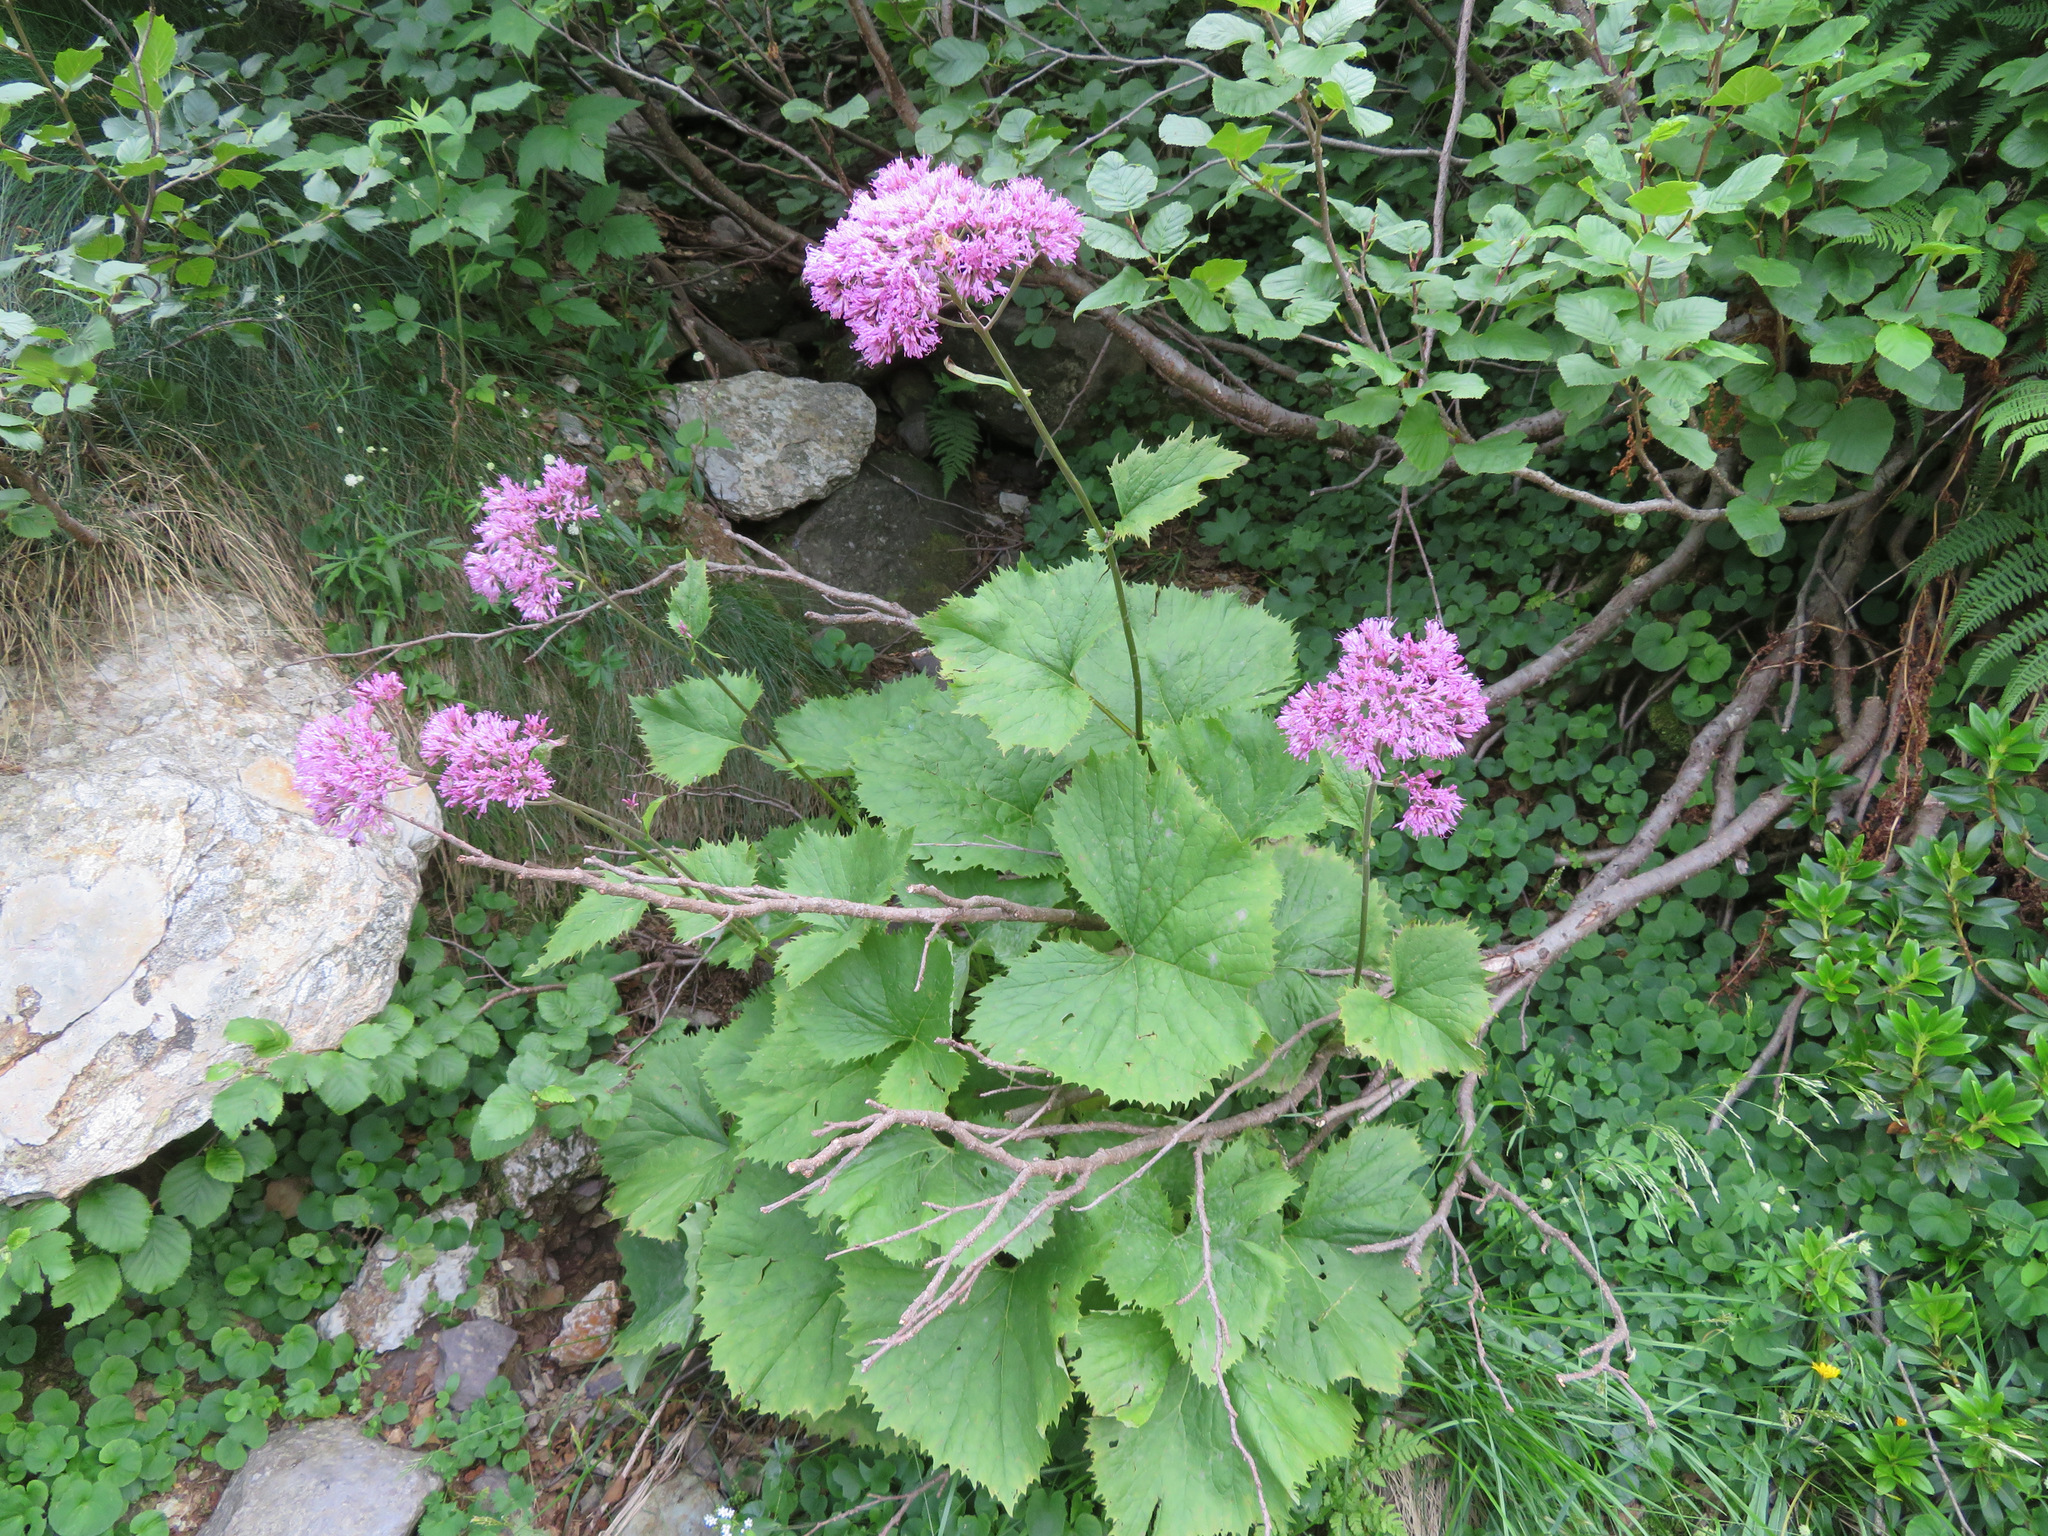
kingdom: Plantae
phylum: Tracheophyta
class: Magnoliopsida
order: Asterales
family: Asteraceae
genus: Adenostyles
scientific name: Adenostyles alliariae
